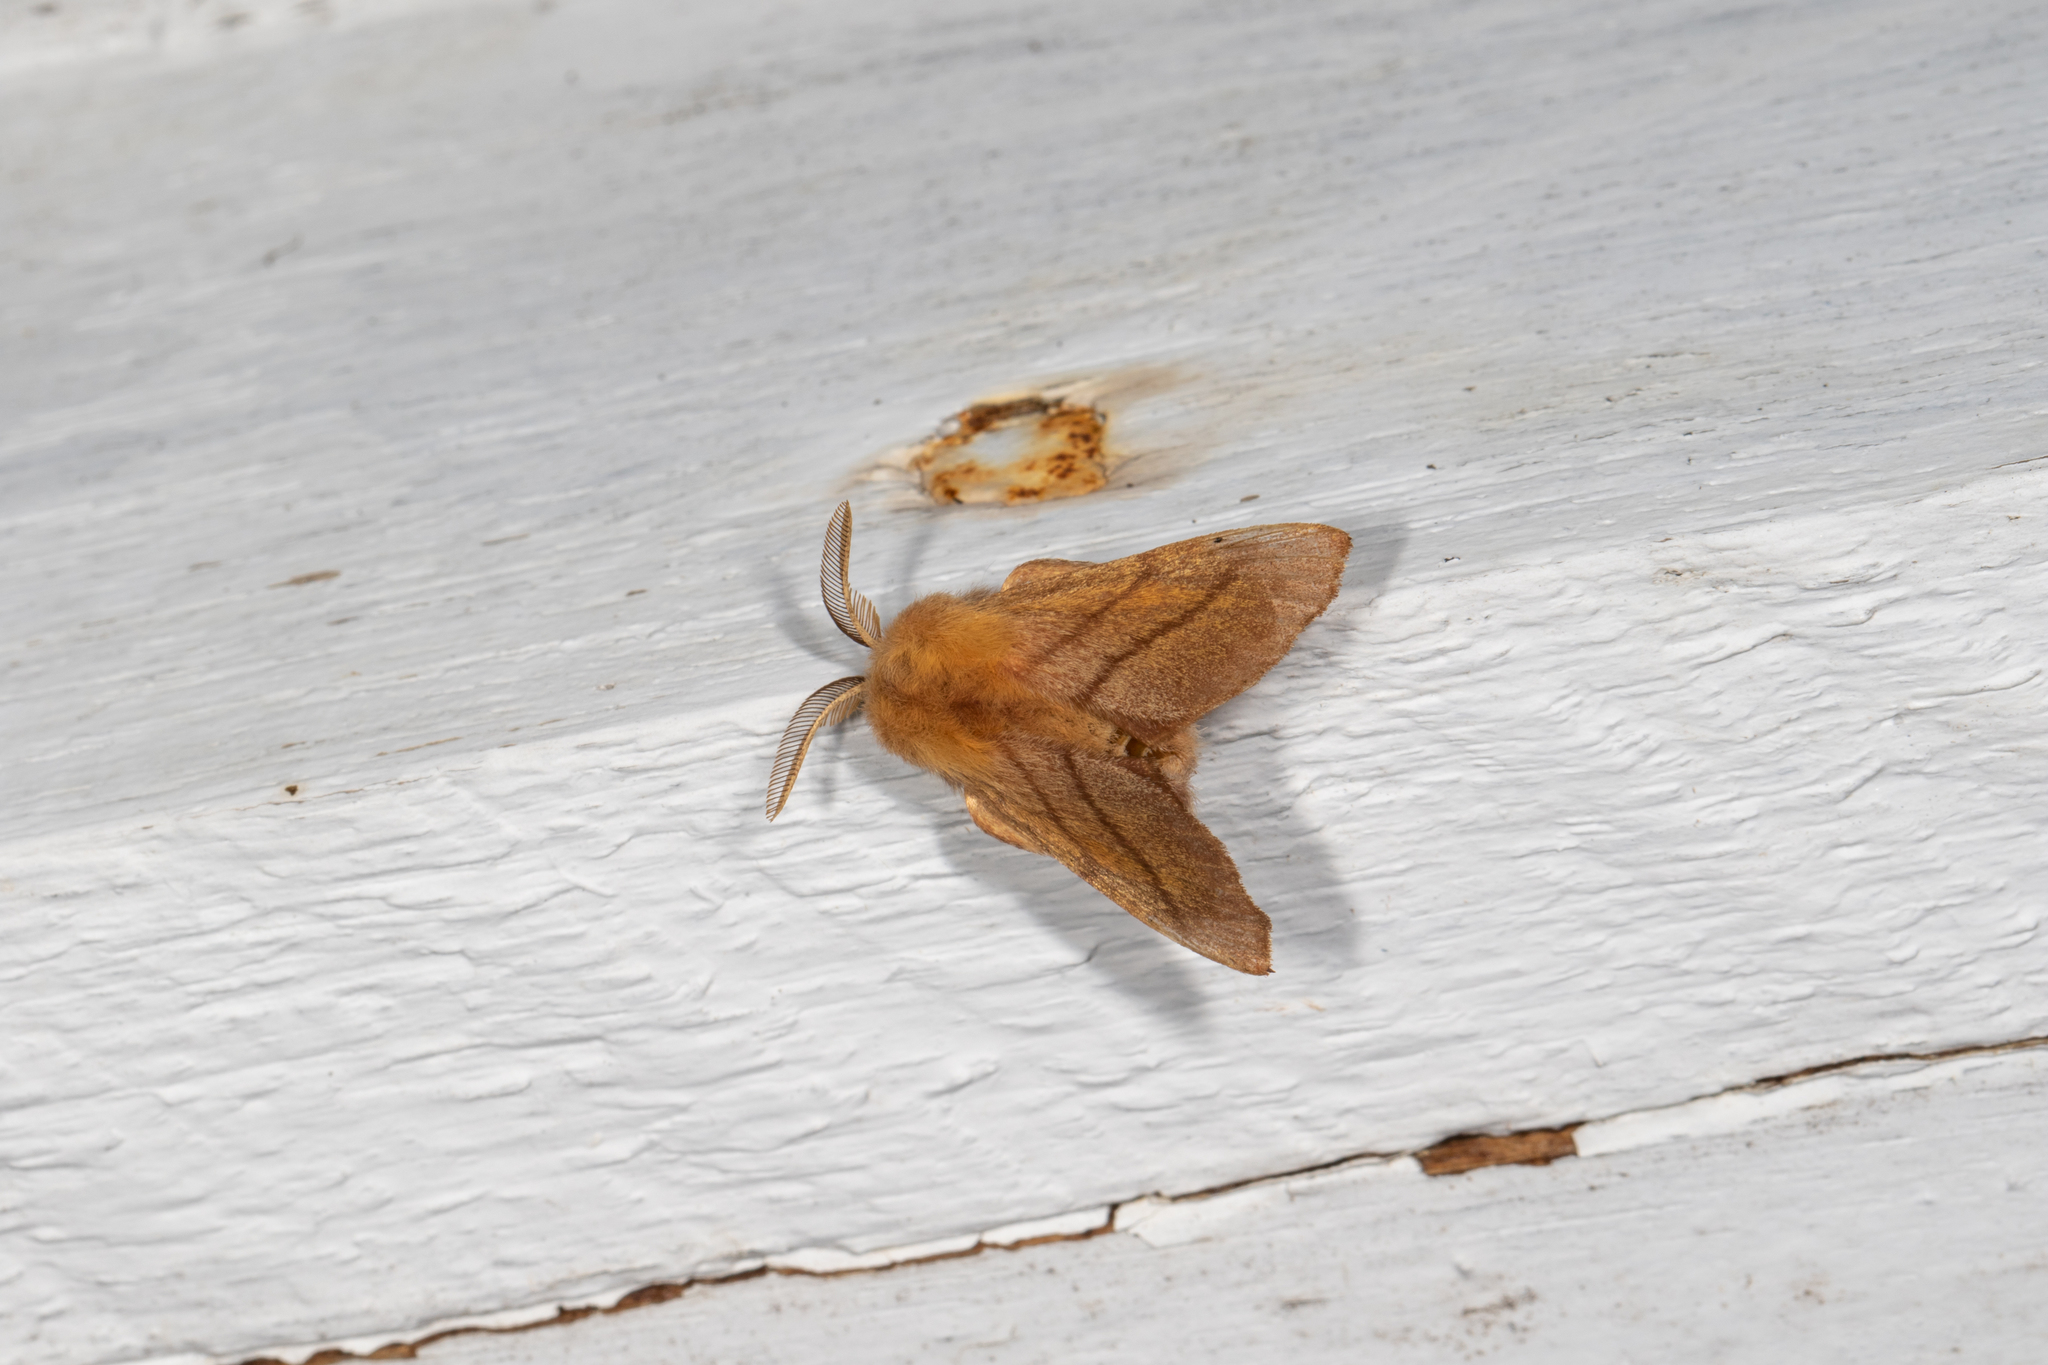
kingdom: Animalia
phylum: Arthropoda
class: Insecta
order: Lepidoptera
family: Lasiocampidae
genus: Malacosoma
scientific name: Malacosoma disstria
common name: Forest tent caterpillar
